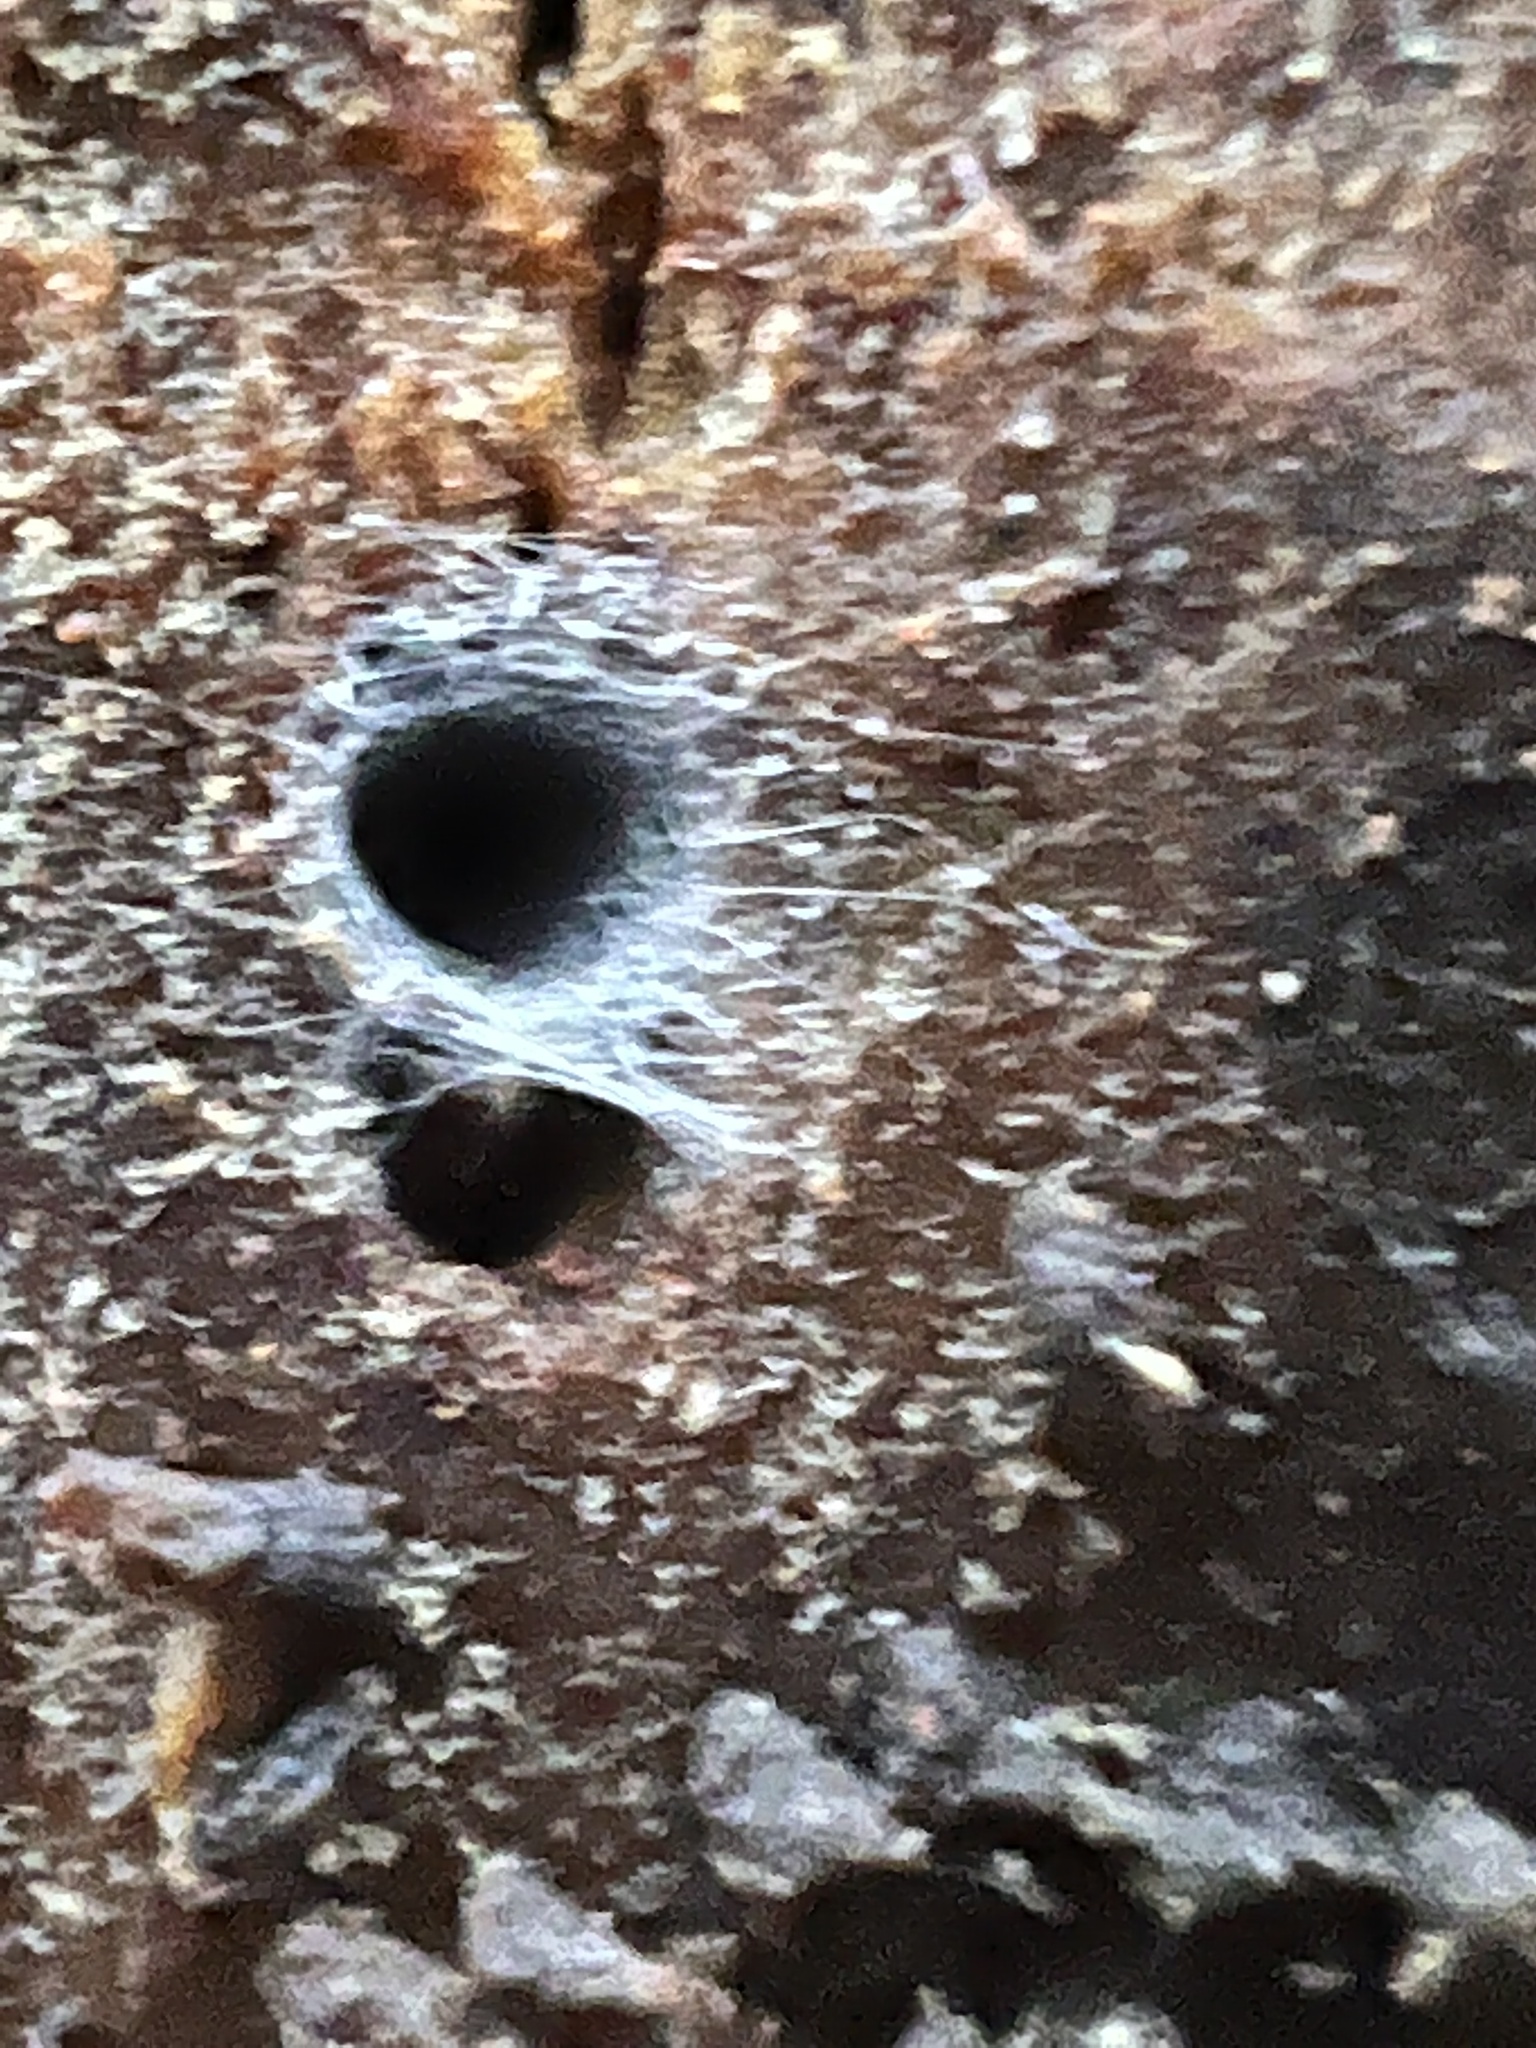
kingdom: Animalia
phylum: Arthropoda
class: Arachnida
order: Araneae
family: Segestriidae
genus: Ariadna
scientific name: Ariadna bicolor
